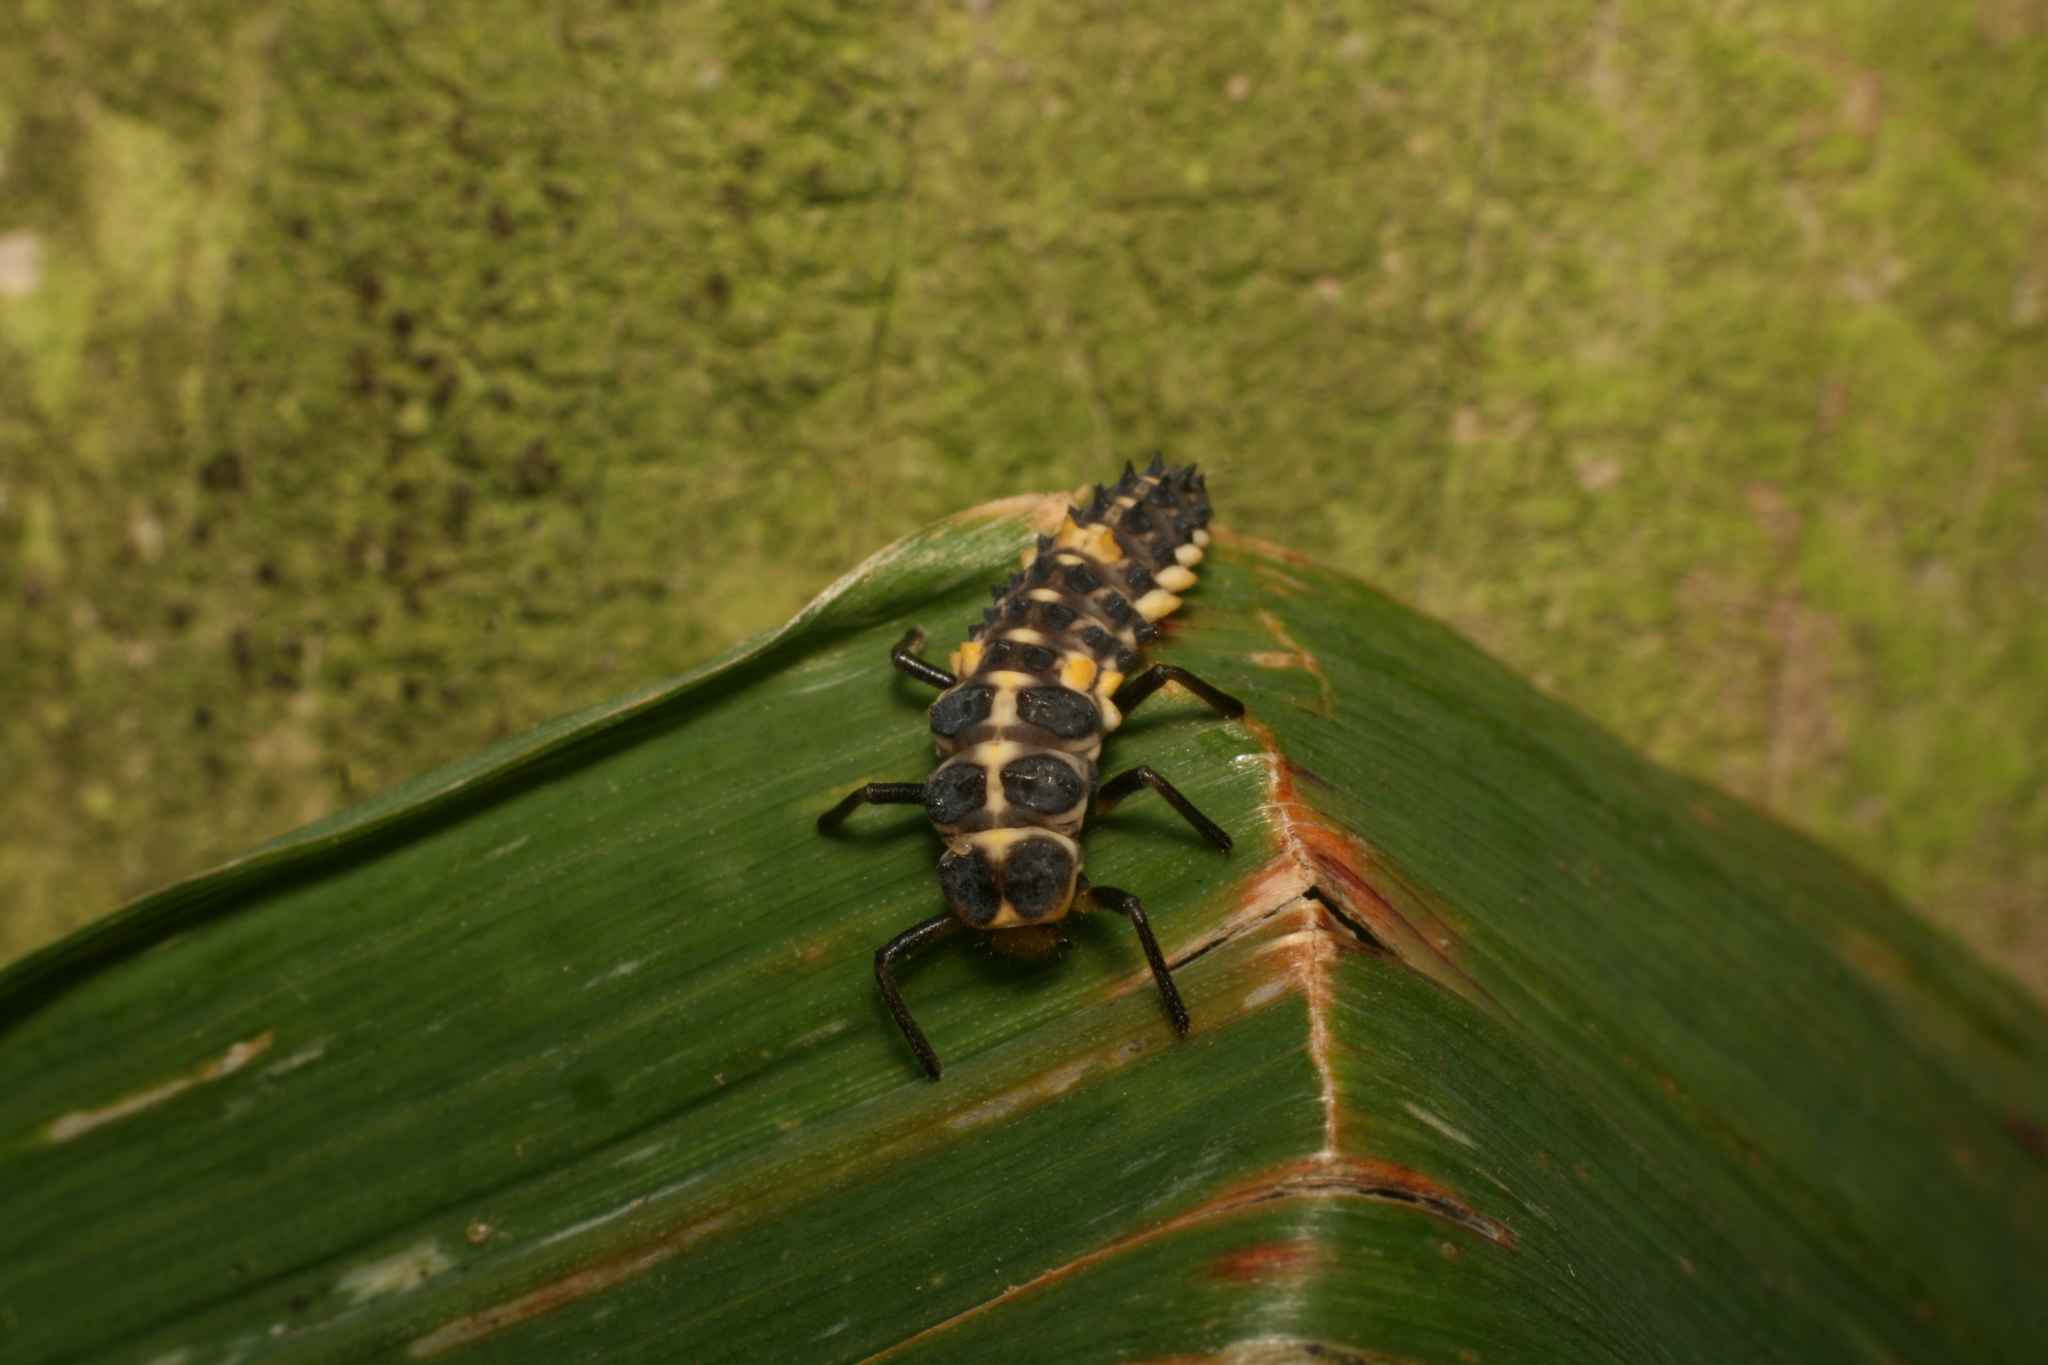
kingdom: Animalia
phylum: Arthropoda
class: Insecta
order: Coleoptera
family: Coccinellidae
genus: Cleobora
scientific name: Cleobora
